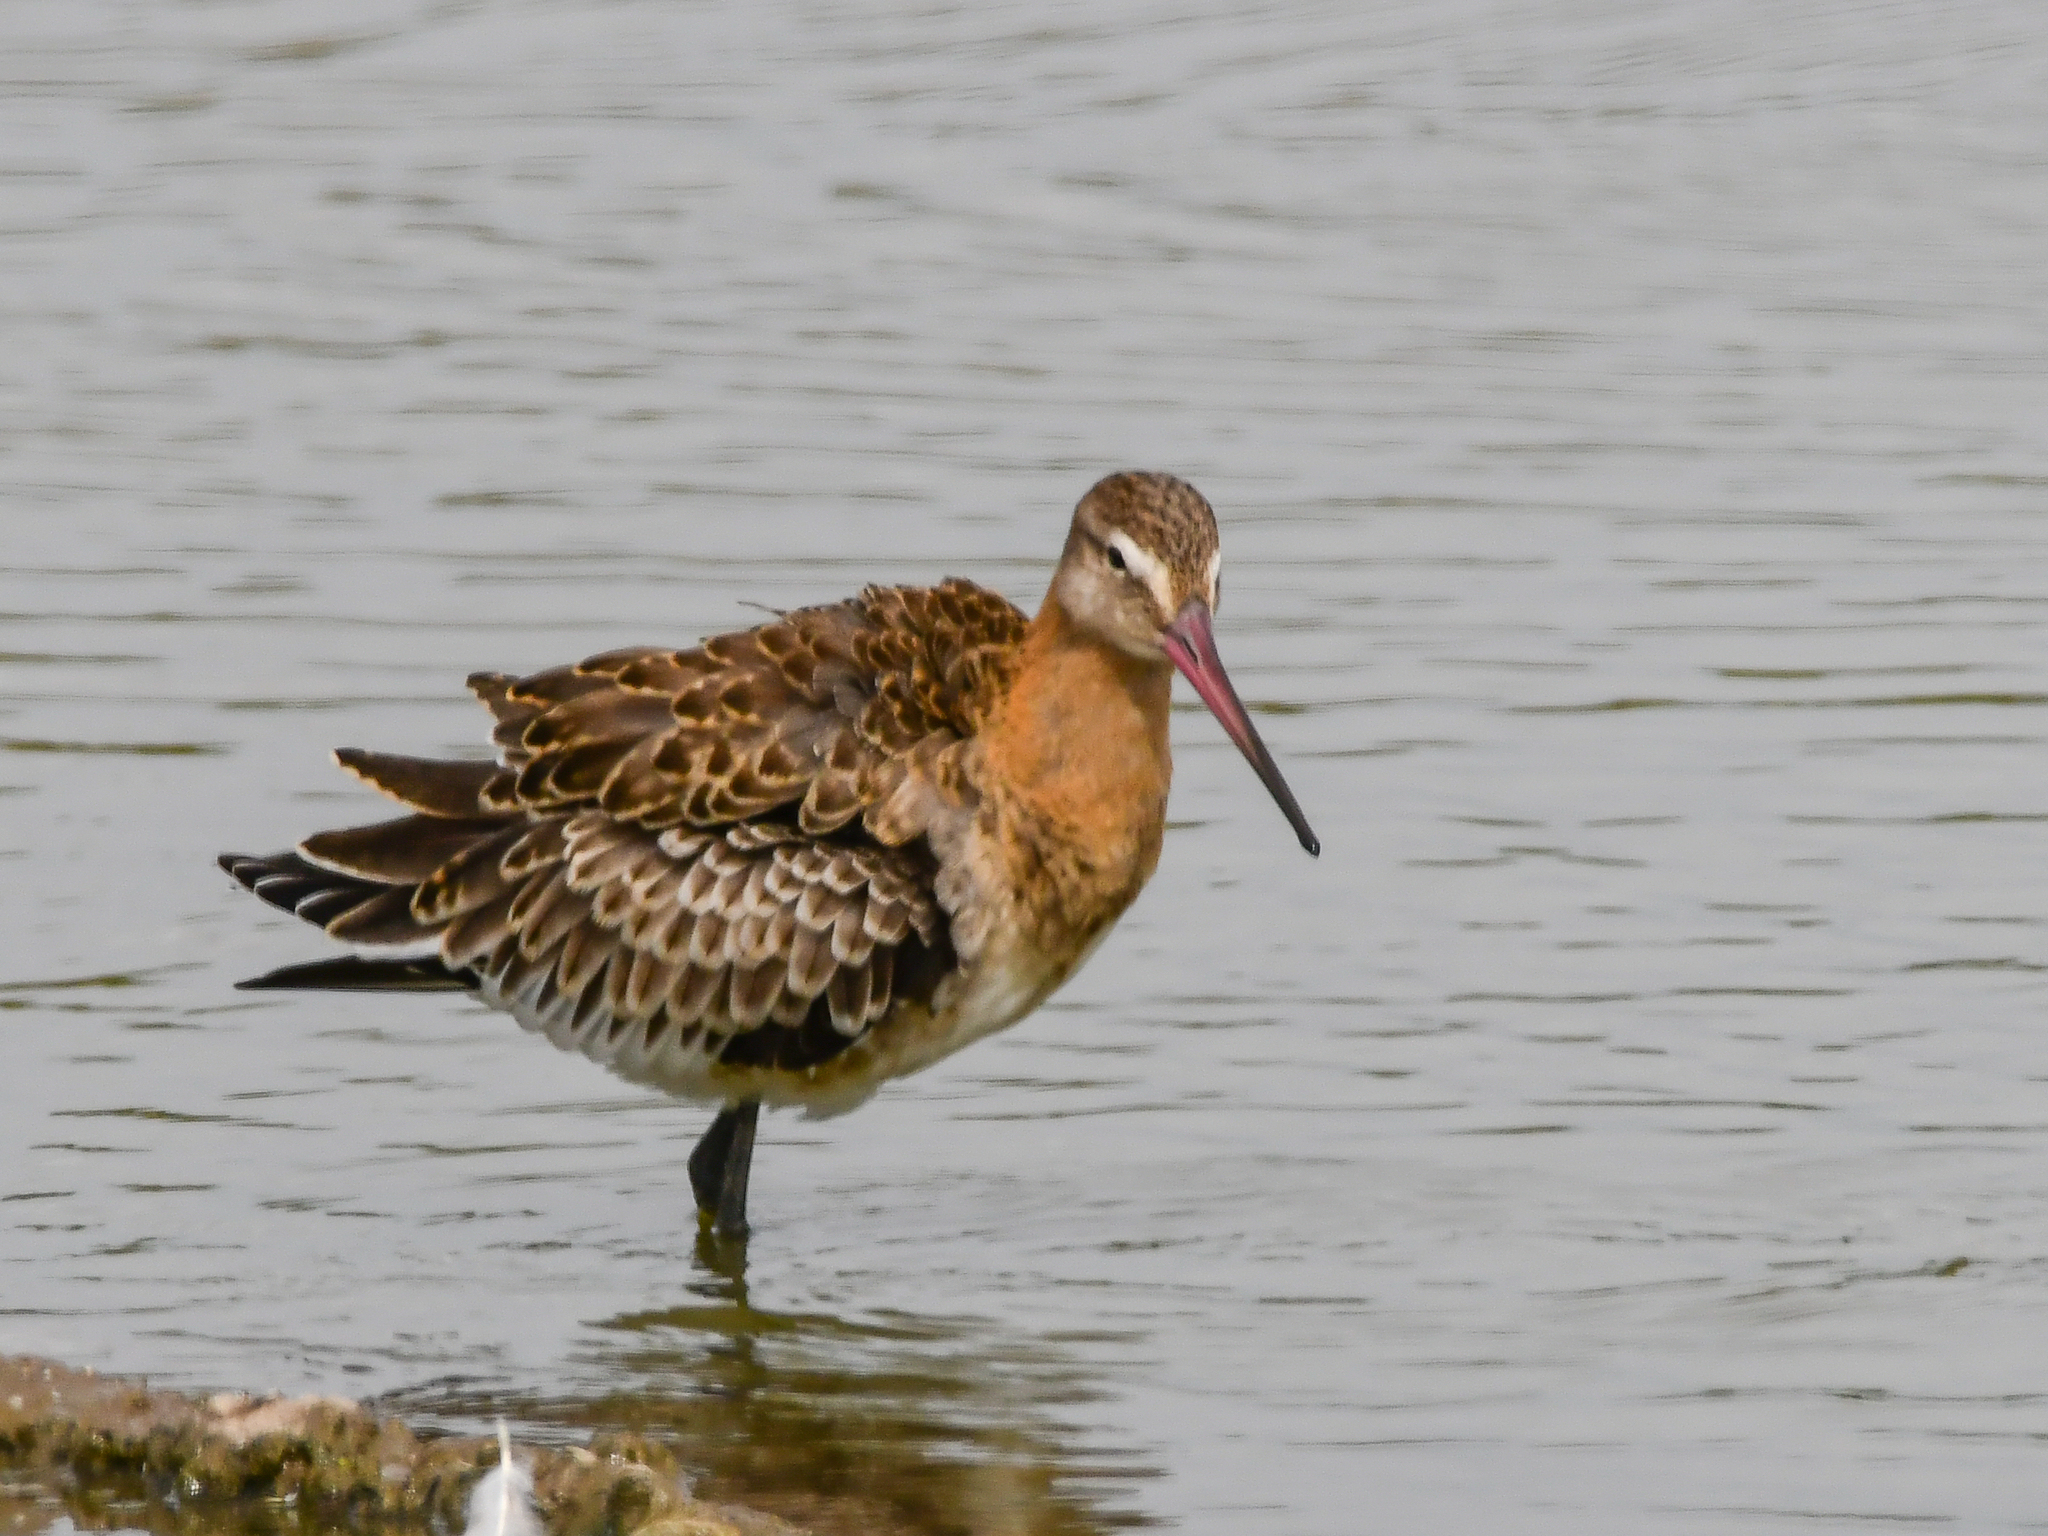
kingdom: Animalia
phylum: Chordata
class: Aves
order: Charadriiformes
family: Scolopacidae
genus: Limosa
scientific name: Limosa limosa
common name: Black-tailed godwit
